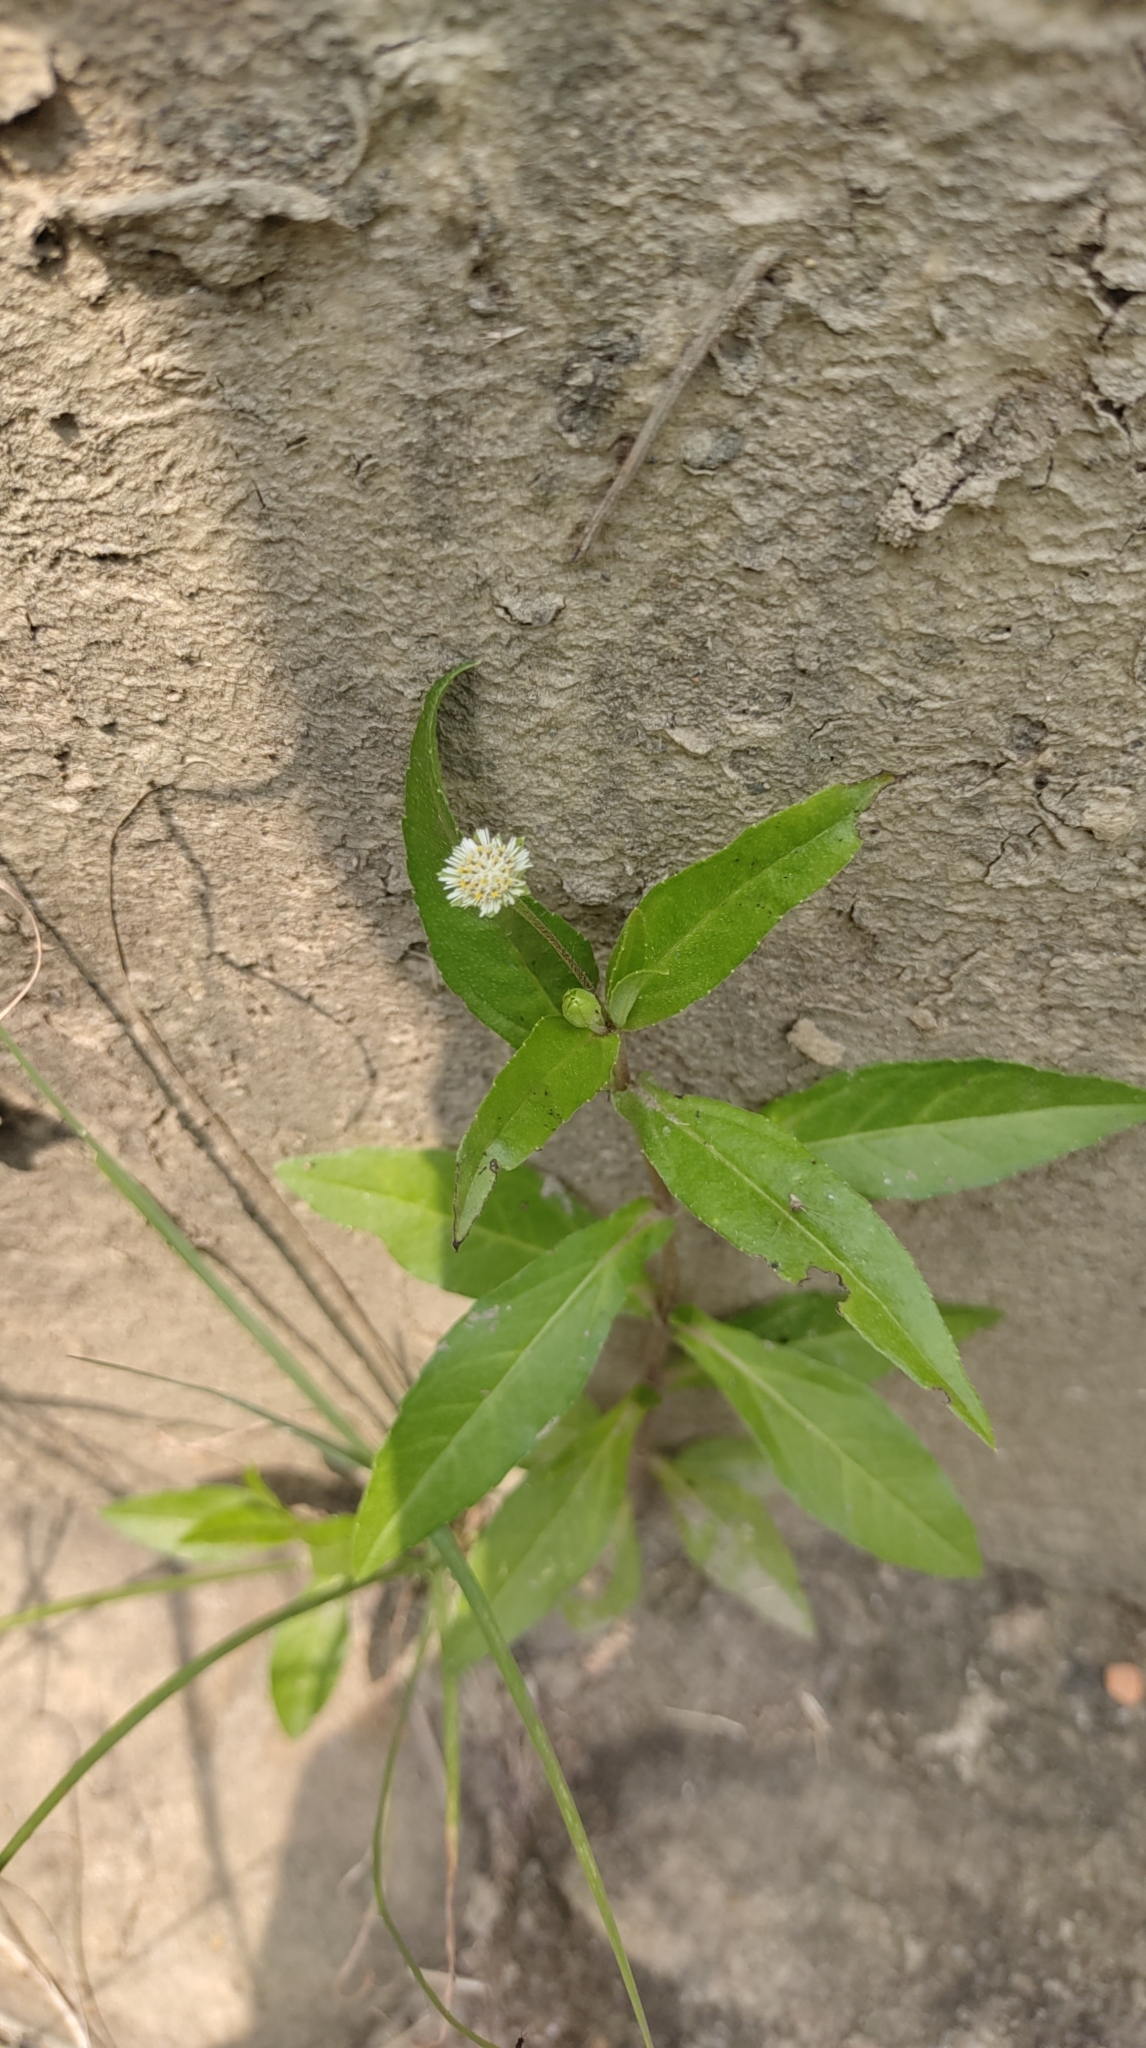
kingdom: Plantae
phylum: Tracheophyta
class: Magnoliopsida
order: Asterales
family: Asteraceae
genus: Eclipta
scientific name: Eclipta prostrata
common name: False daisy
